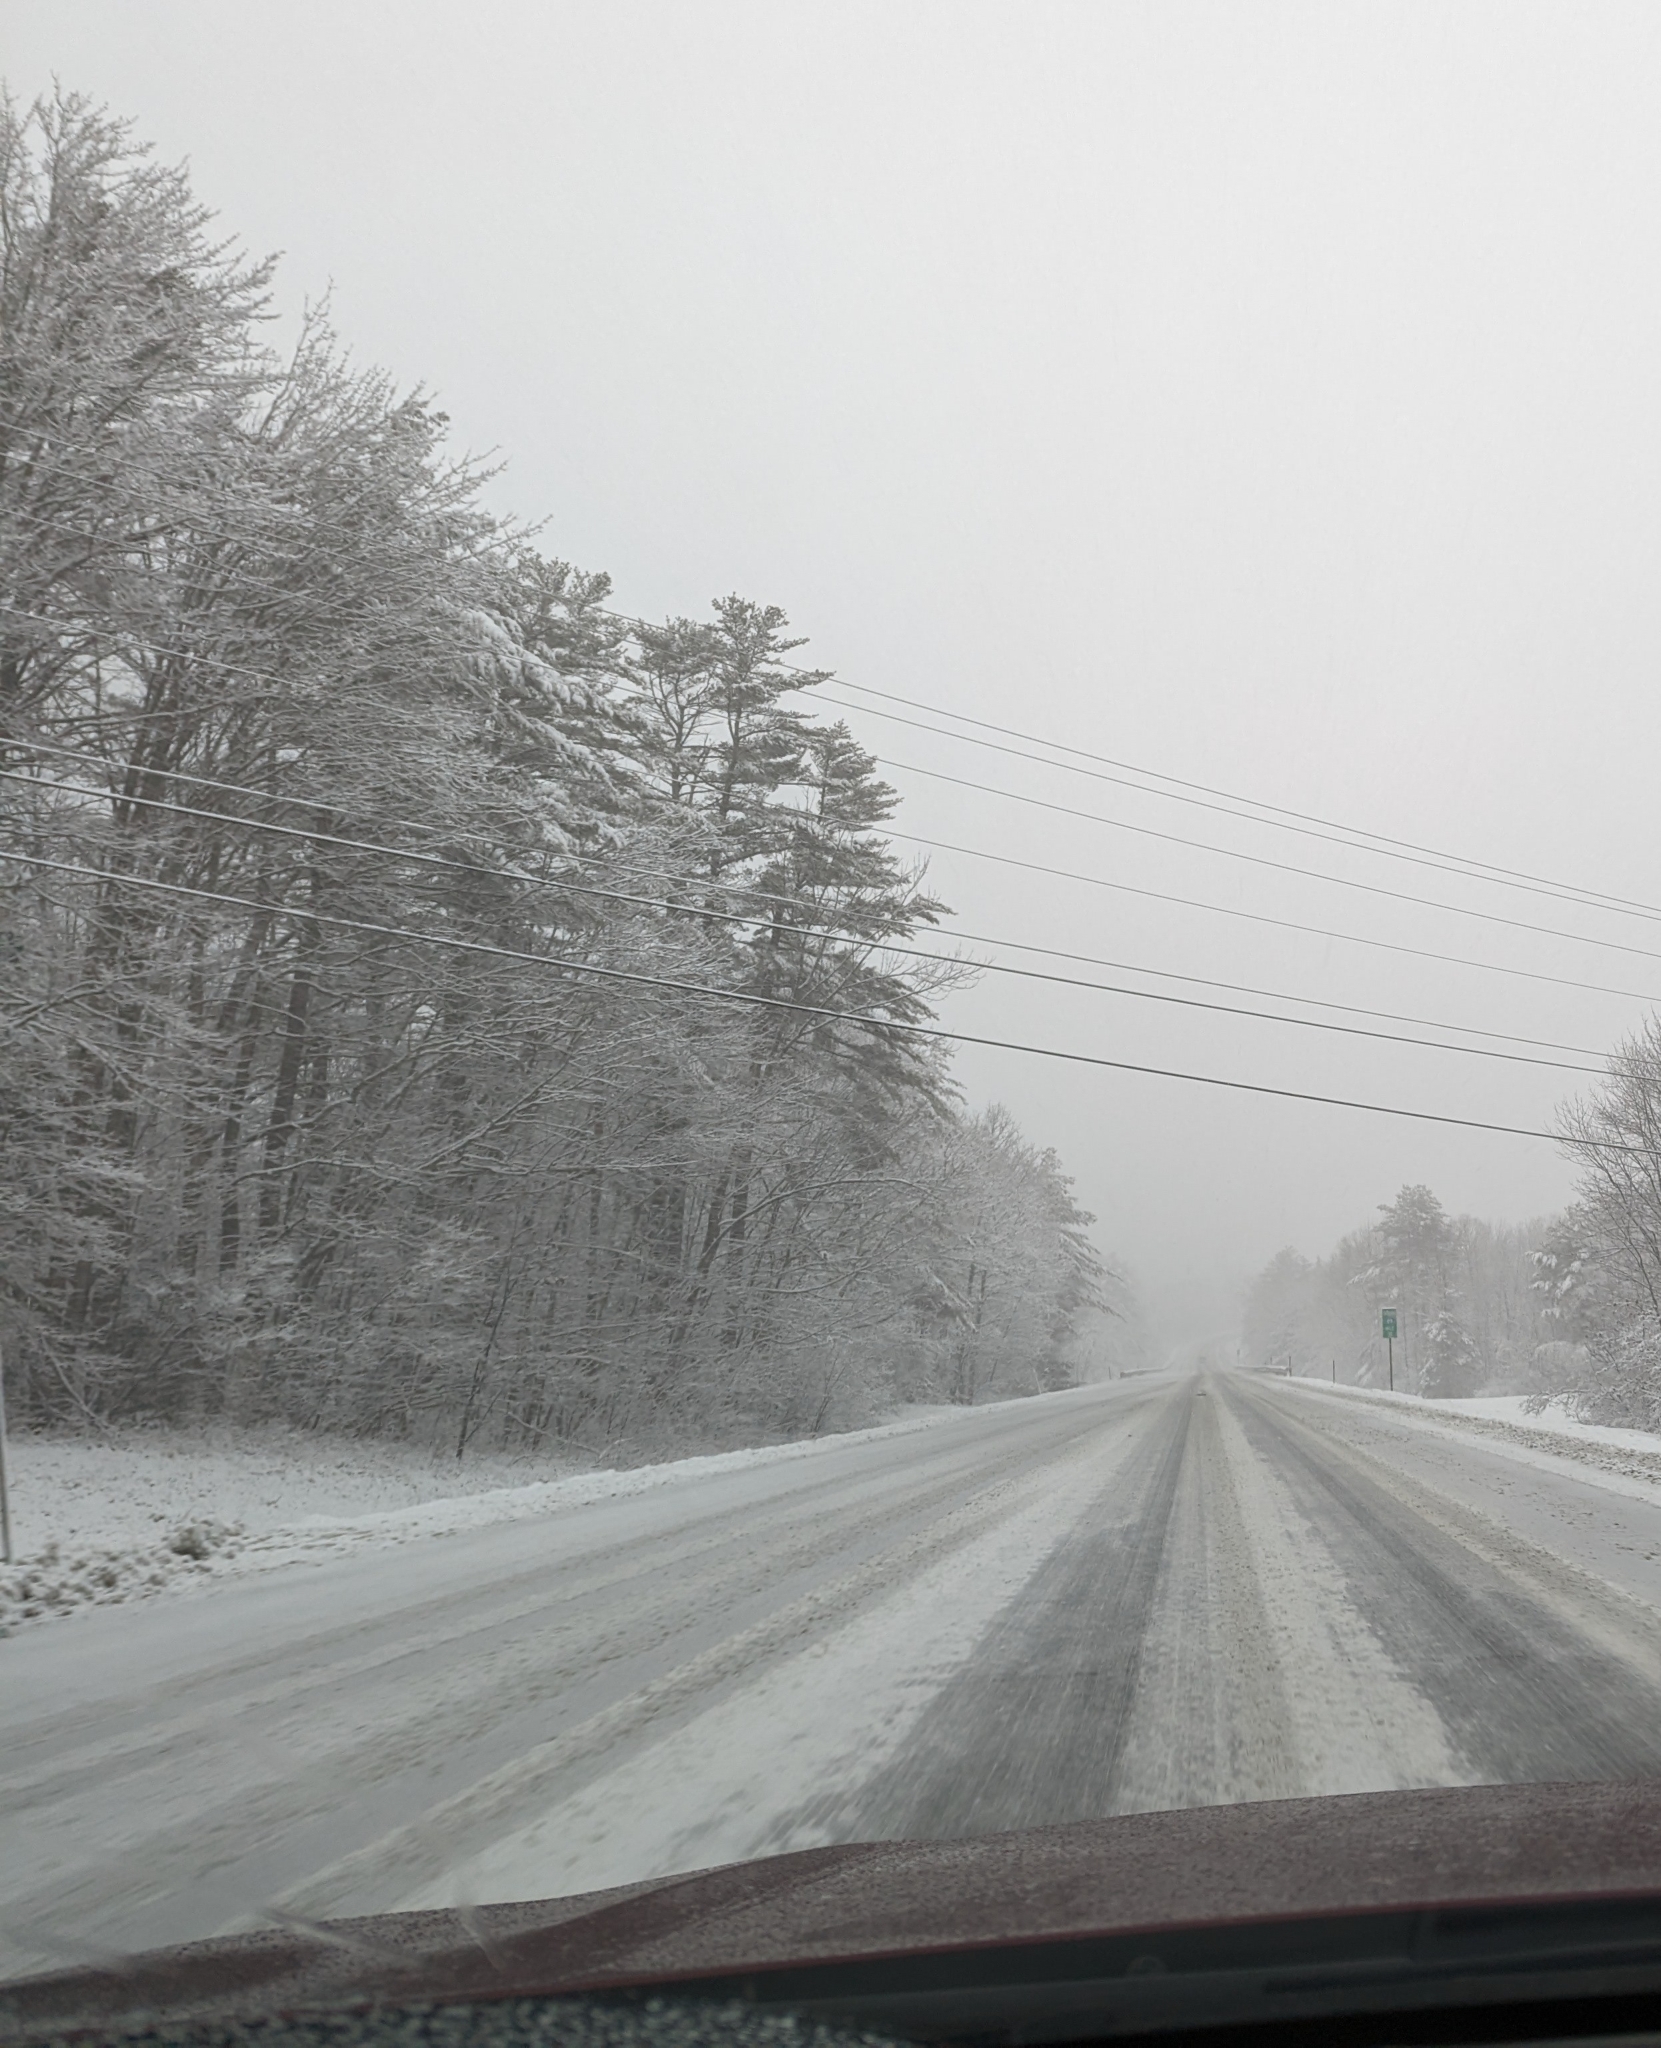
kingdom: Plantae
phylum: Tracheophyta
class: Pinopsida
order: Pinales
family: Pinaceae
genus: Pinus
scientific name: Pinus strobus
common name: Weymouth pine
